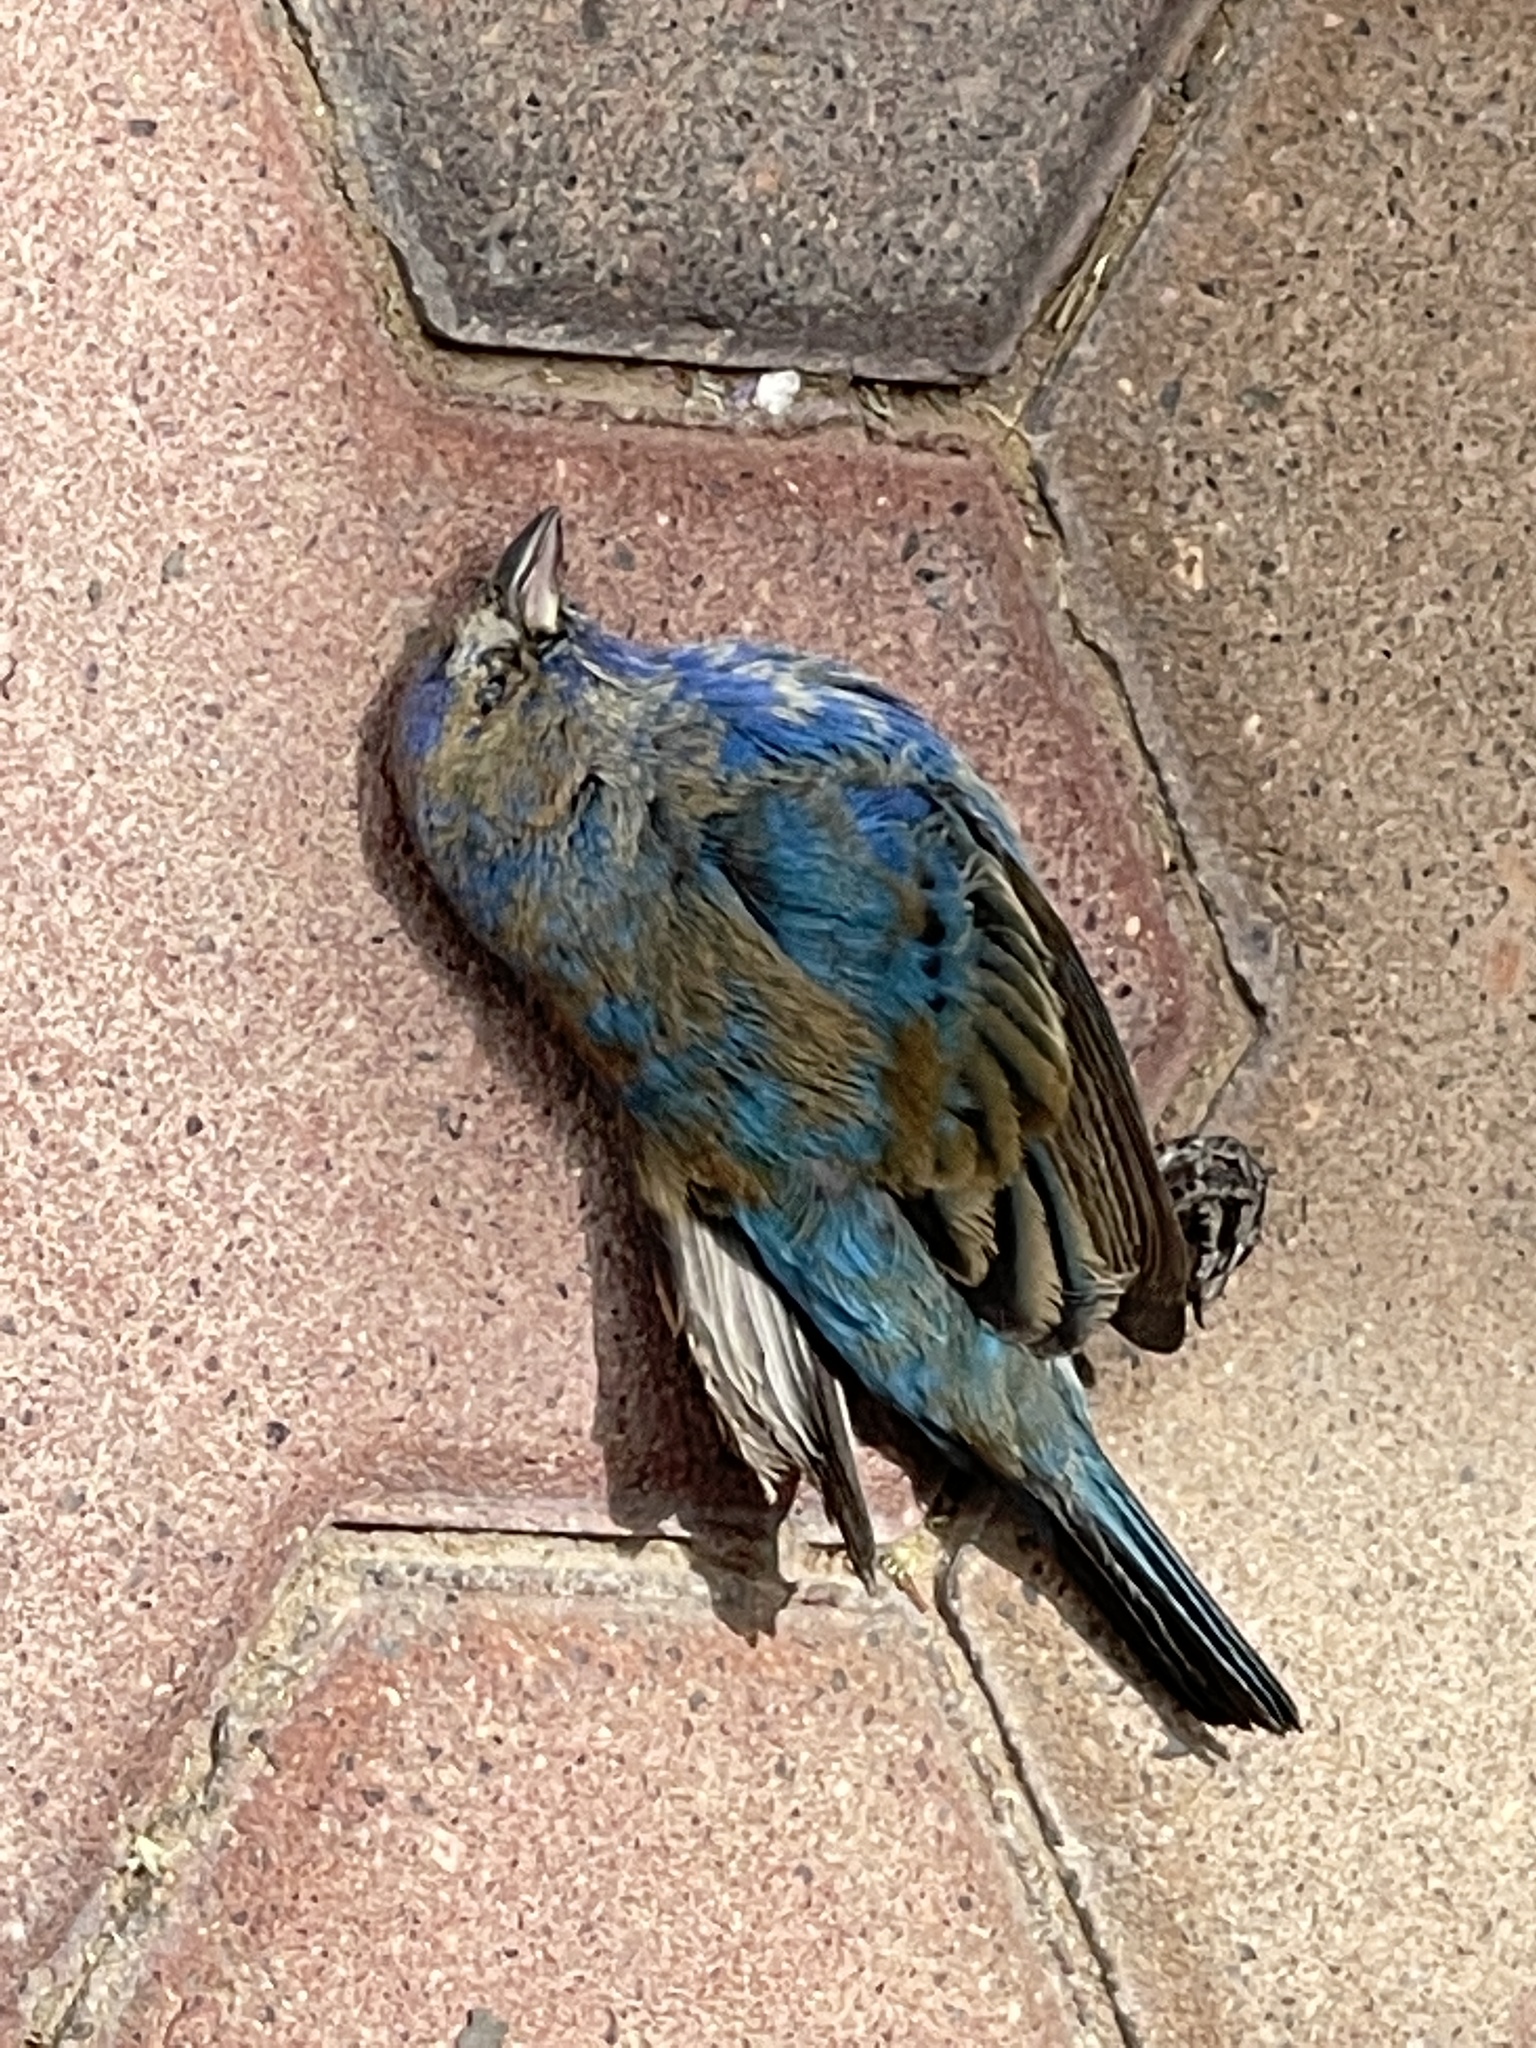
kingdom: Animalia
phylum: Chordata
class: Aves
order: Passeriformes
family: Cardinalidae
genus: Passerina
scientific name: Passerina cyanea
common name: Indigo bunting
